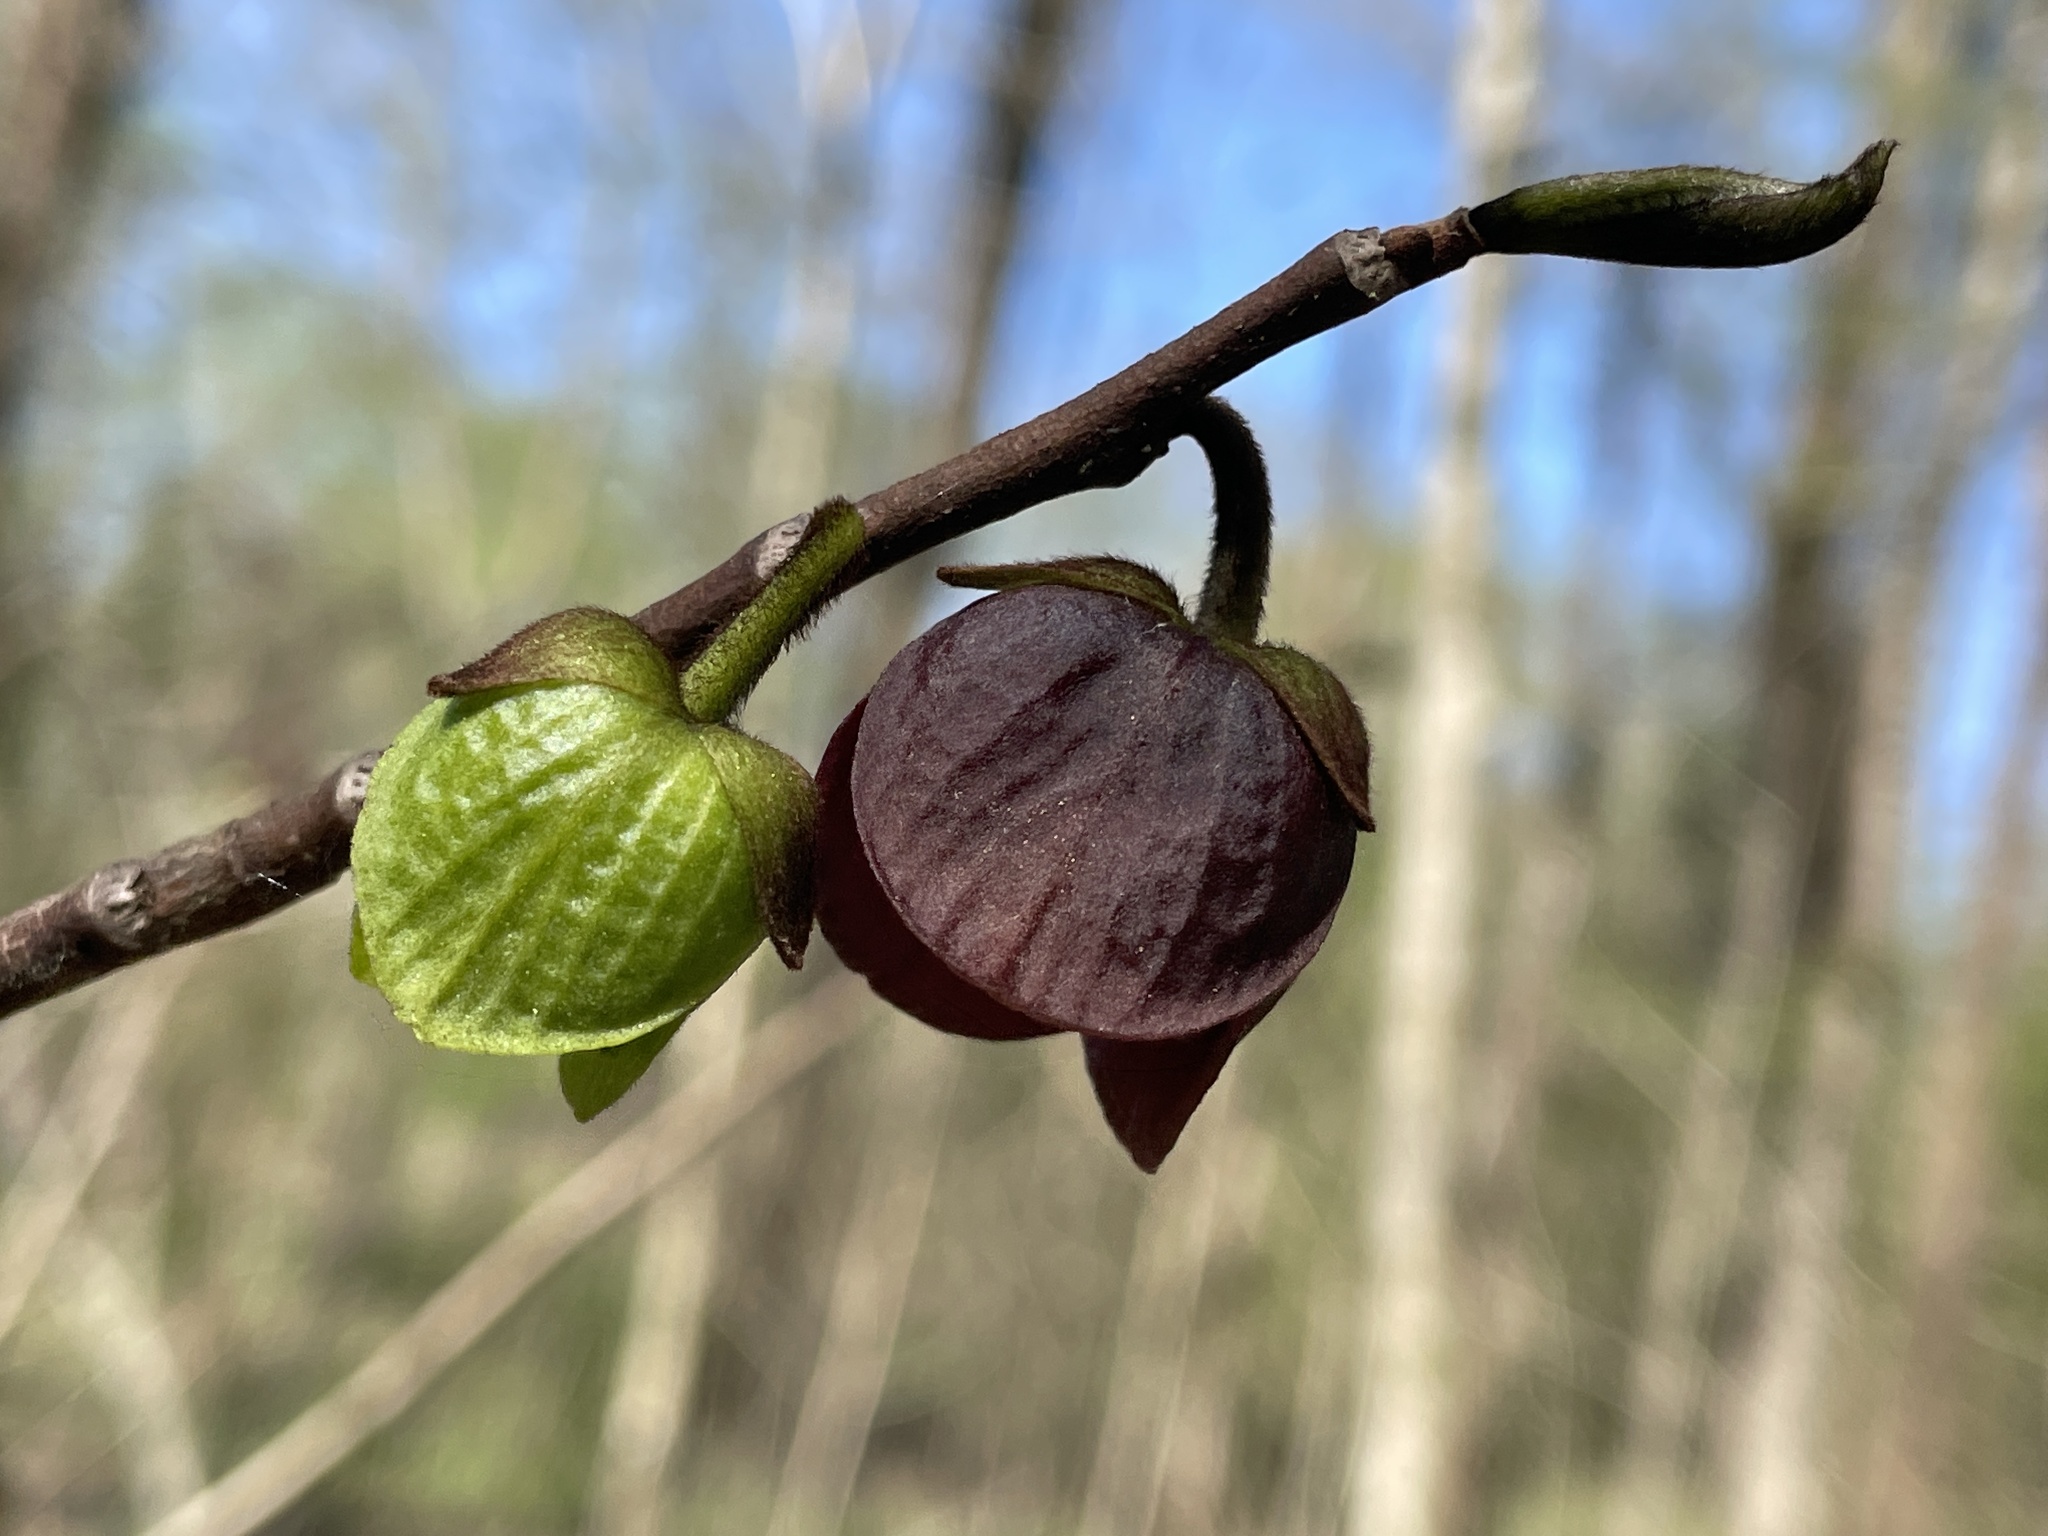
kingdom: Plantae
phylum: Tracheophyta
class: Magnoliopsida
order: Magnoliales
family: Annonaceae
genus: Asimina
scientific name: Asimina triloba
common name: Dog-banana
